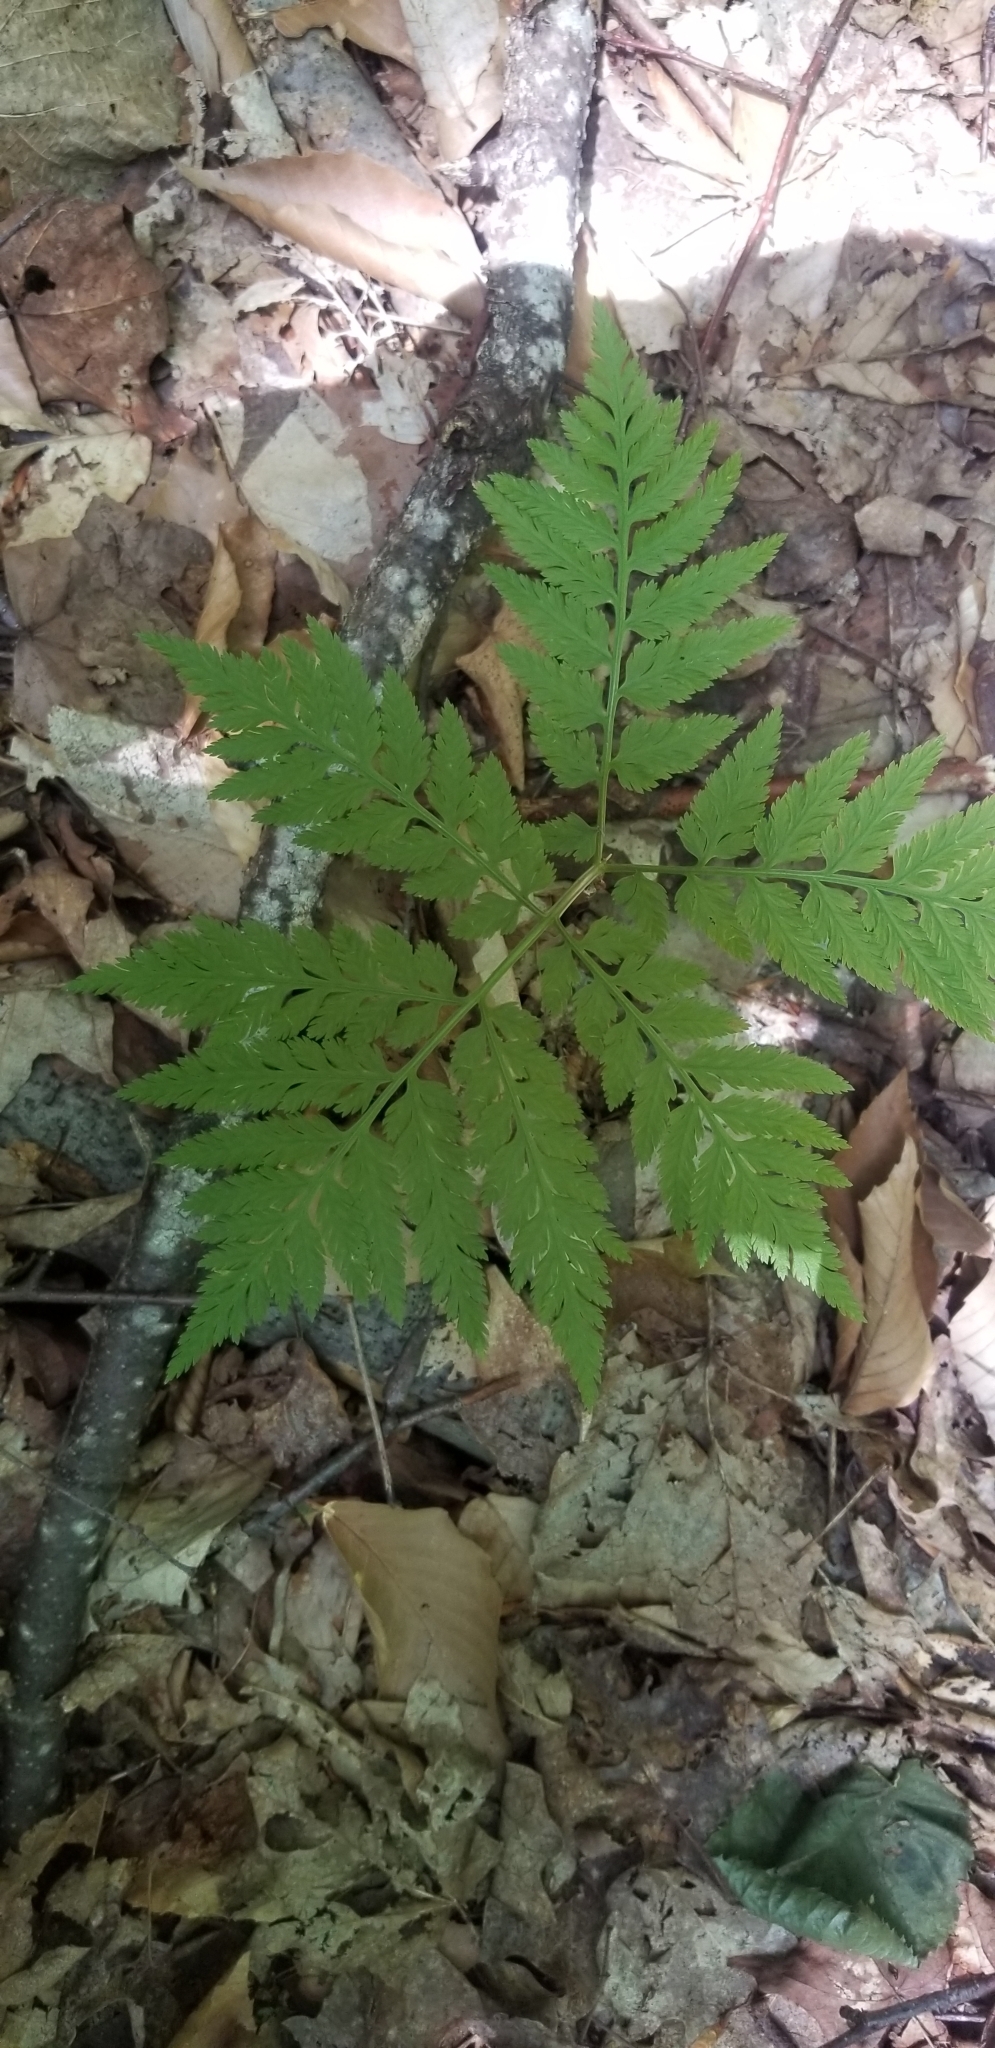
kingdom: Plantae
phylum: Tracheophyta
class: Polypodiopsida
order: Ophioglossales
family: Ophioglossaceae
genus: Botrypus
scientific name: Botrypus virginianus
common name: Common grapefern
